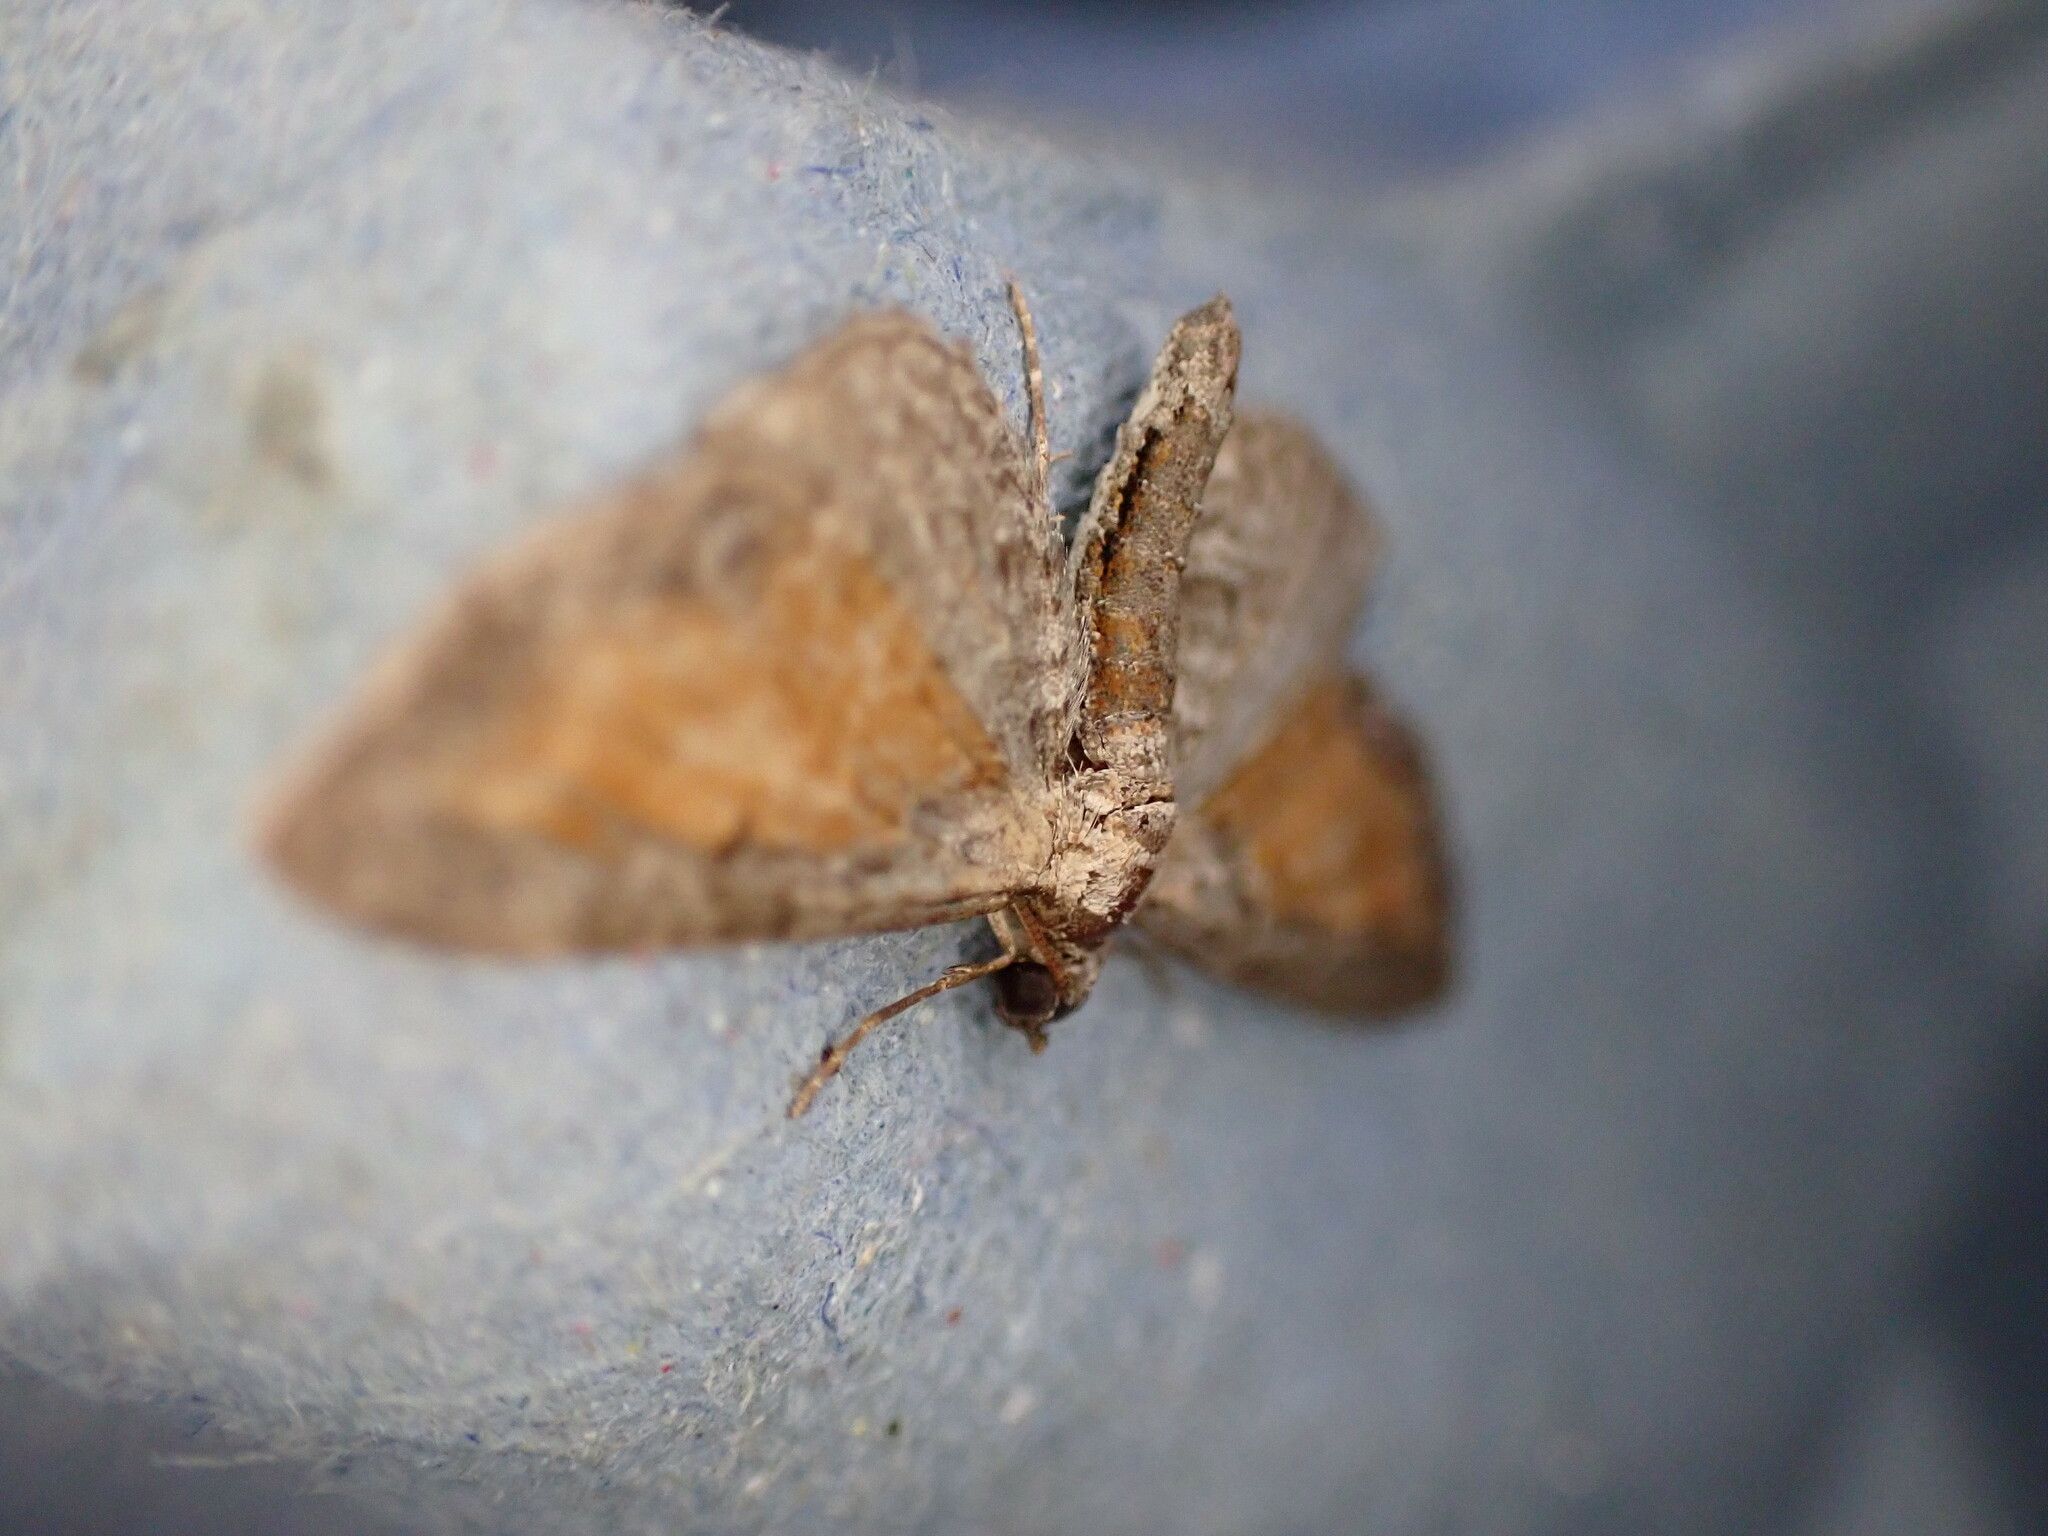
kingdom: Animalia
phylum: Arthropoda
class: Insecta
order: Lepidoptera
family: Geometridae
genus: Eupithecia
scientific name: Eupithecia icterata
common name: Tawny speckled pug
